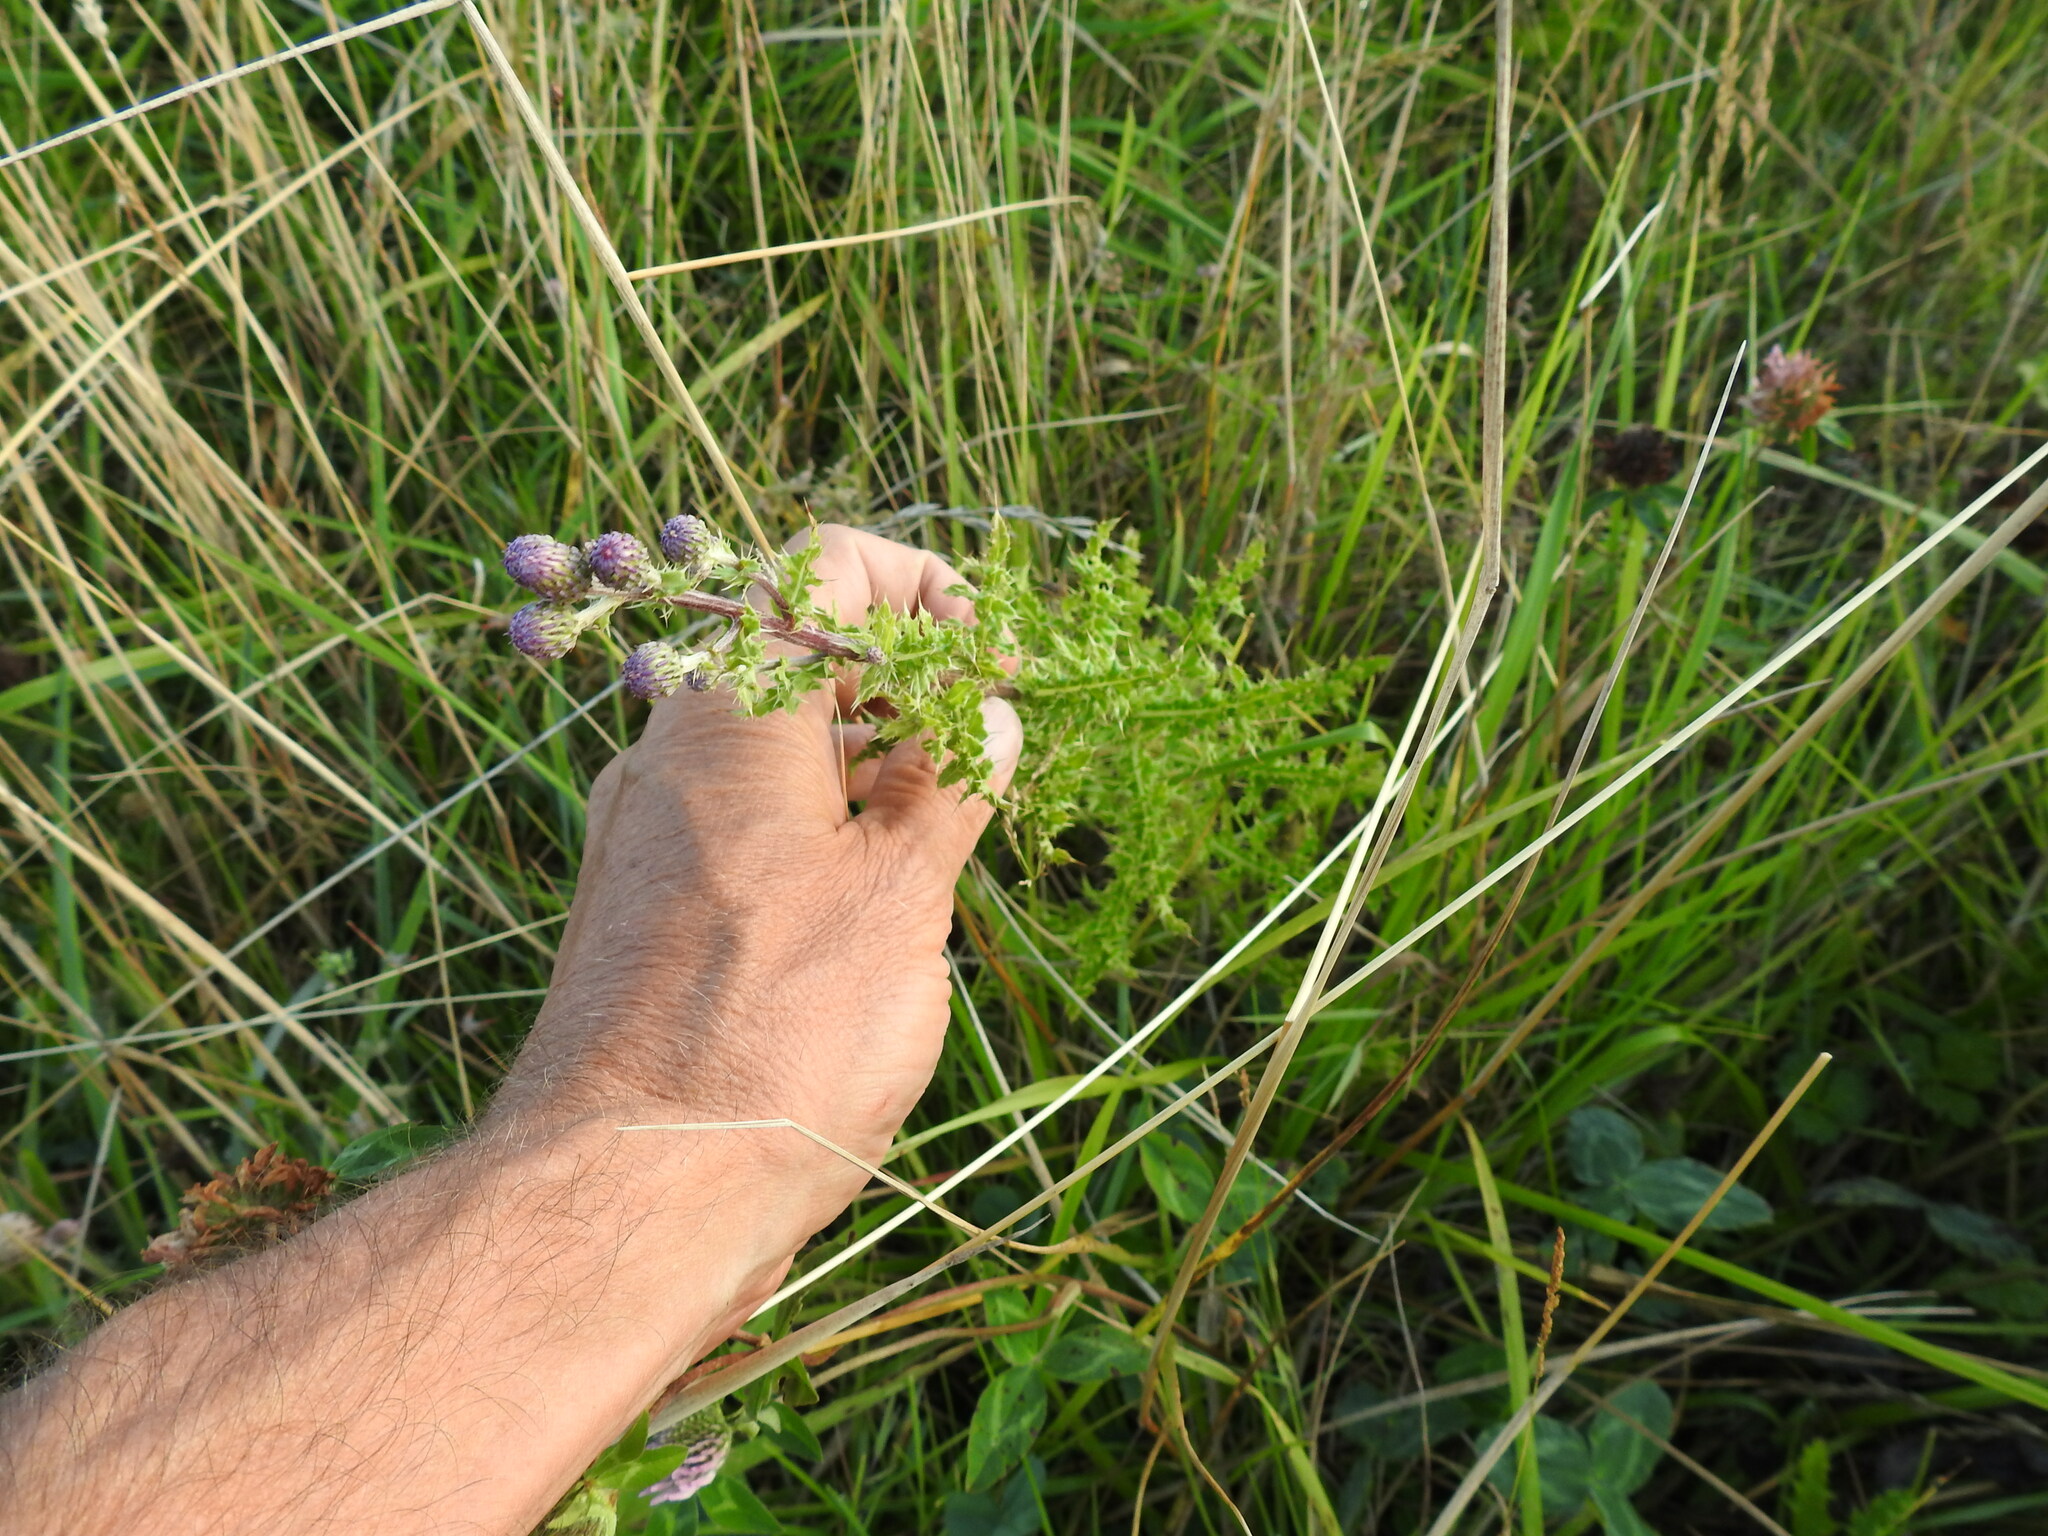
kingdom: Plantae
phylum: Tracheophyta
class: Magnoliopsida
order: Asterales
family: Asteraceae
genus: Cirsium
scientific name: Cirsium arvense
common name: Creeping thistle
